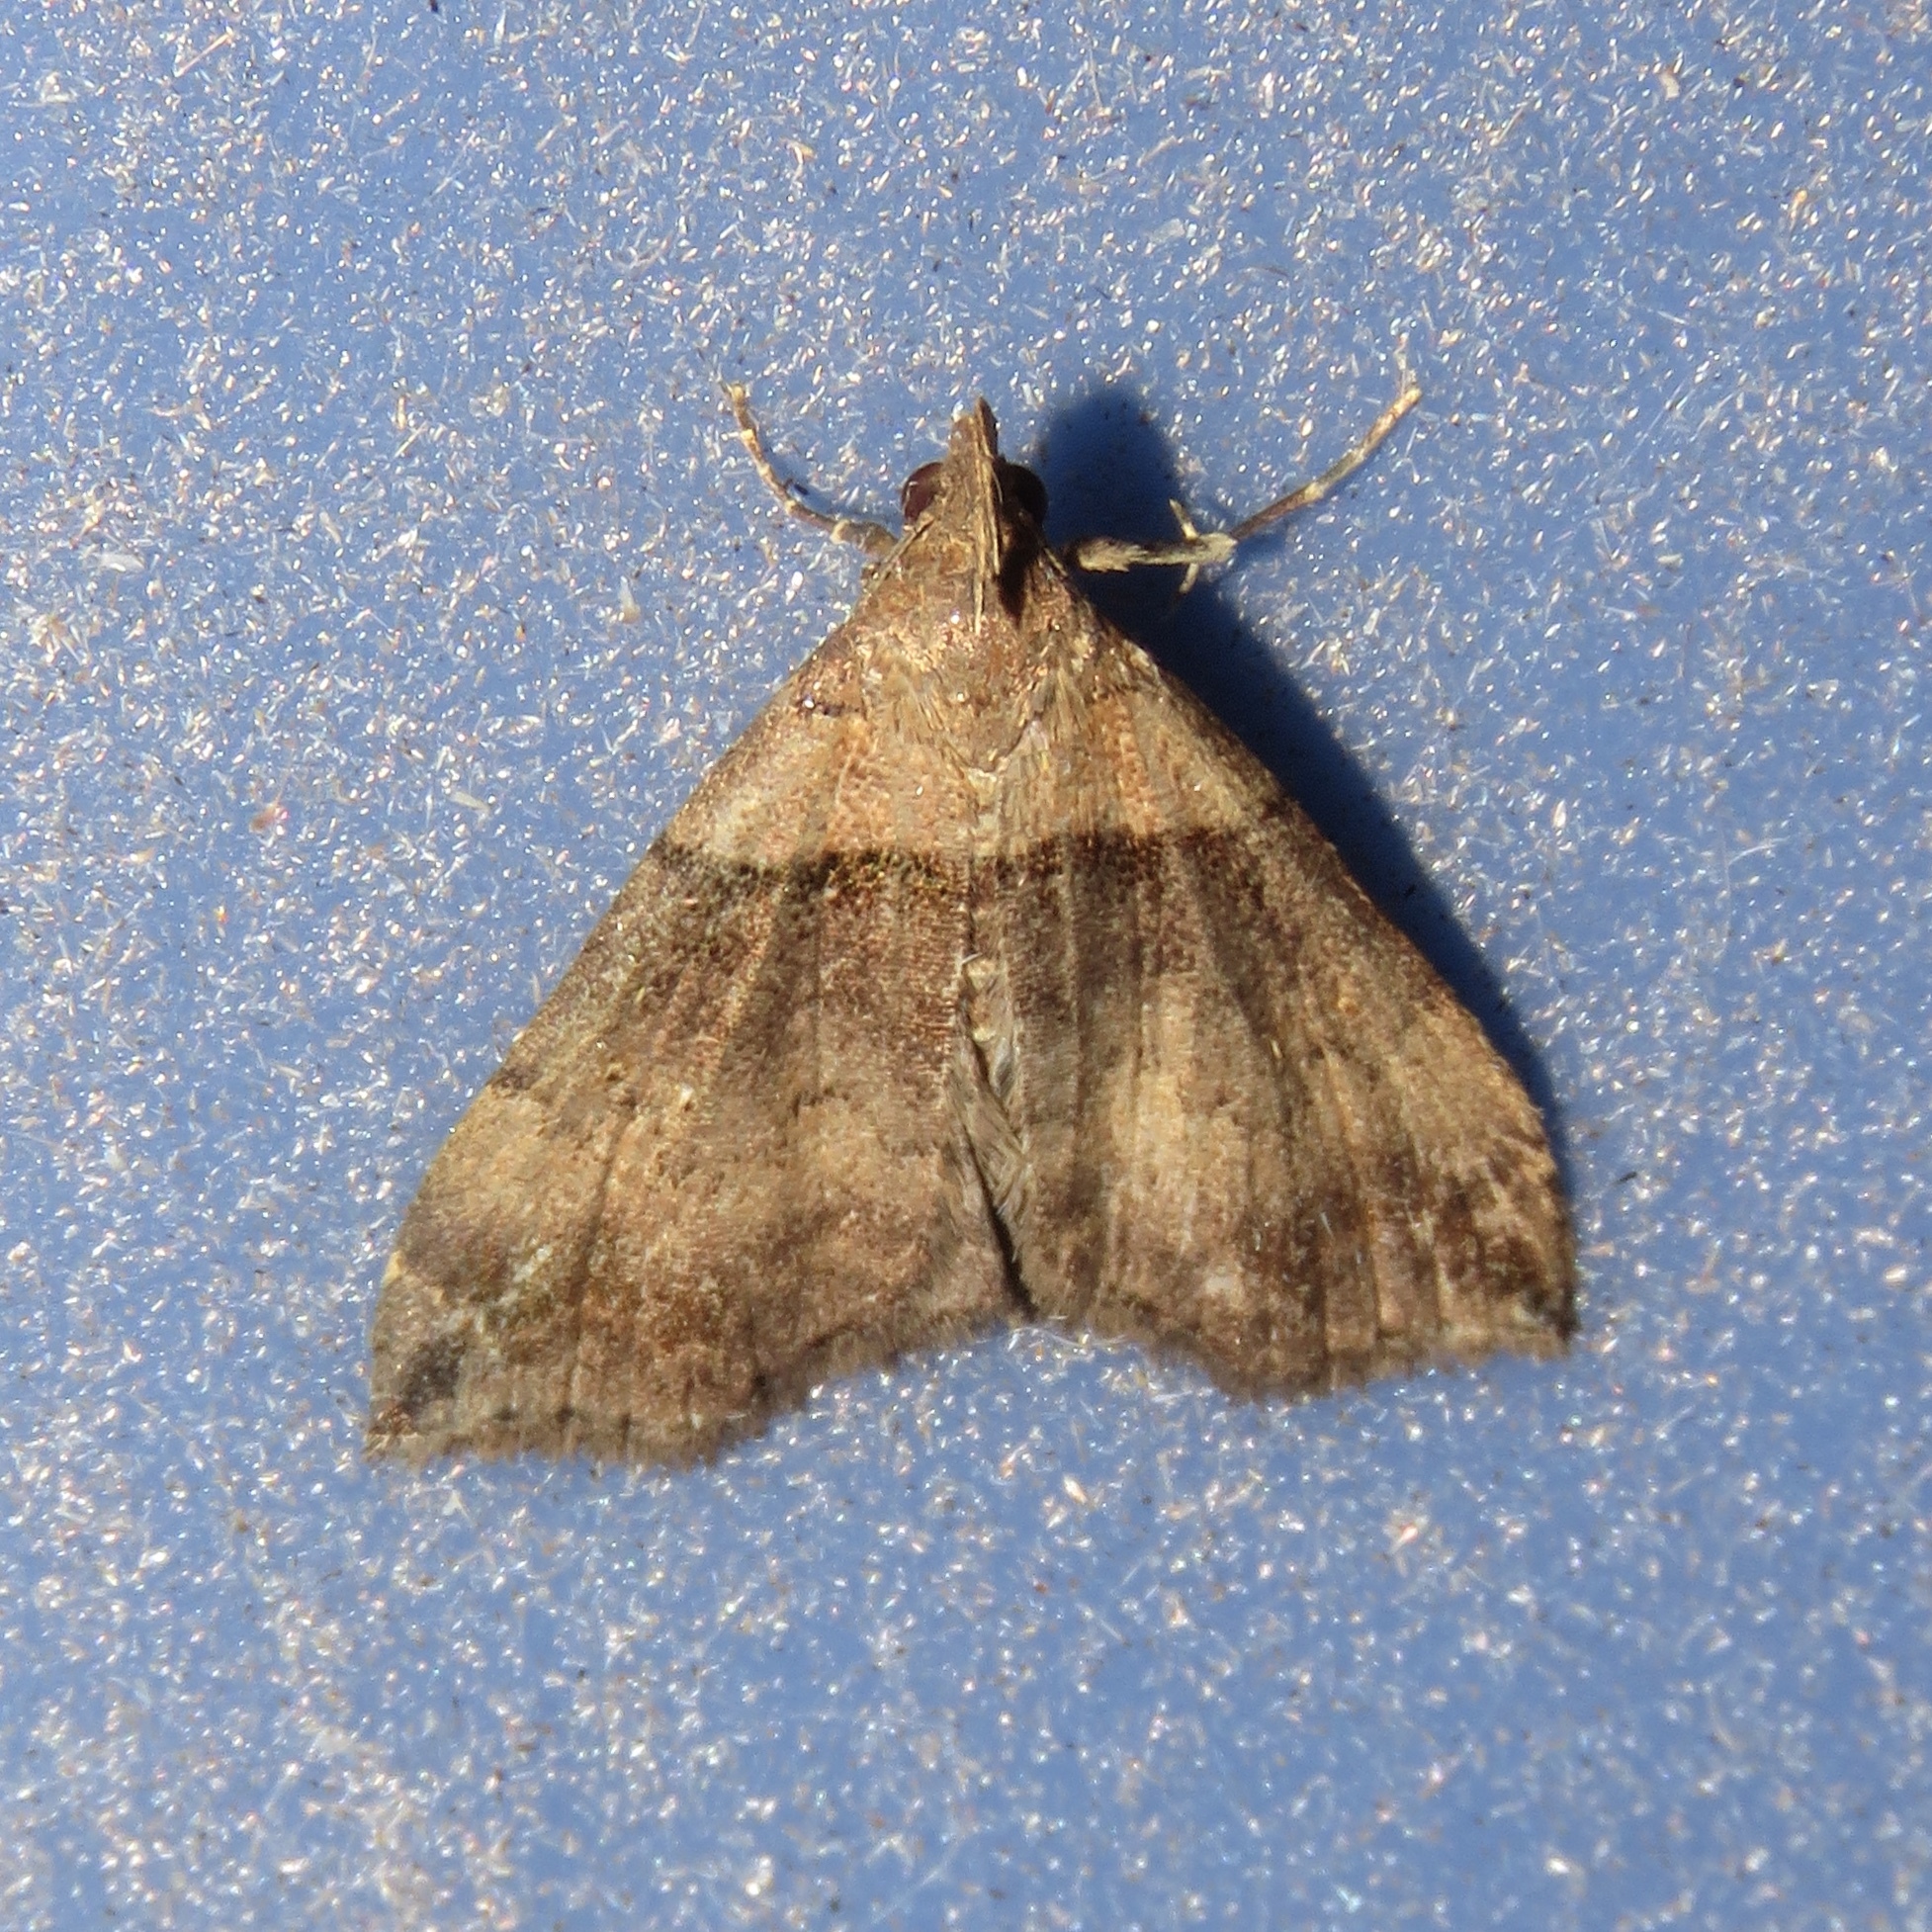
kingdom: Animalia
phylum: Arthropoda
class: Insecta
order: Lepidoptera
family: Erebidae
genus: Lascoria
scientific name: Lascoria ambigualis
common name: Ambiguous moth
